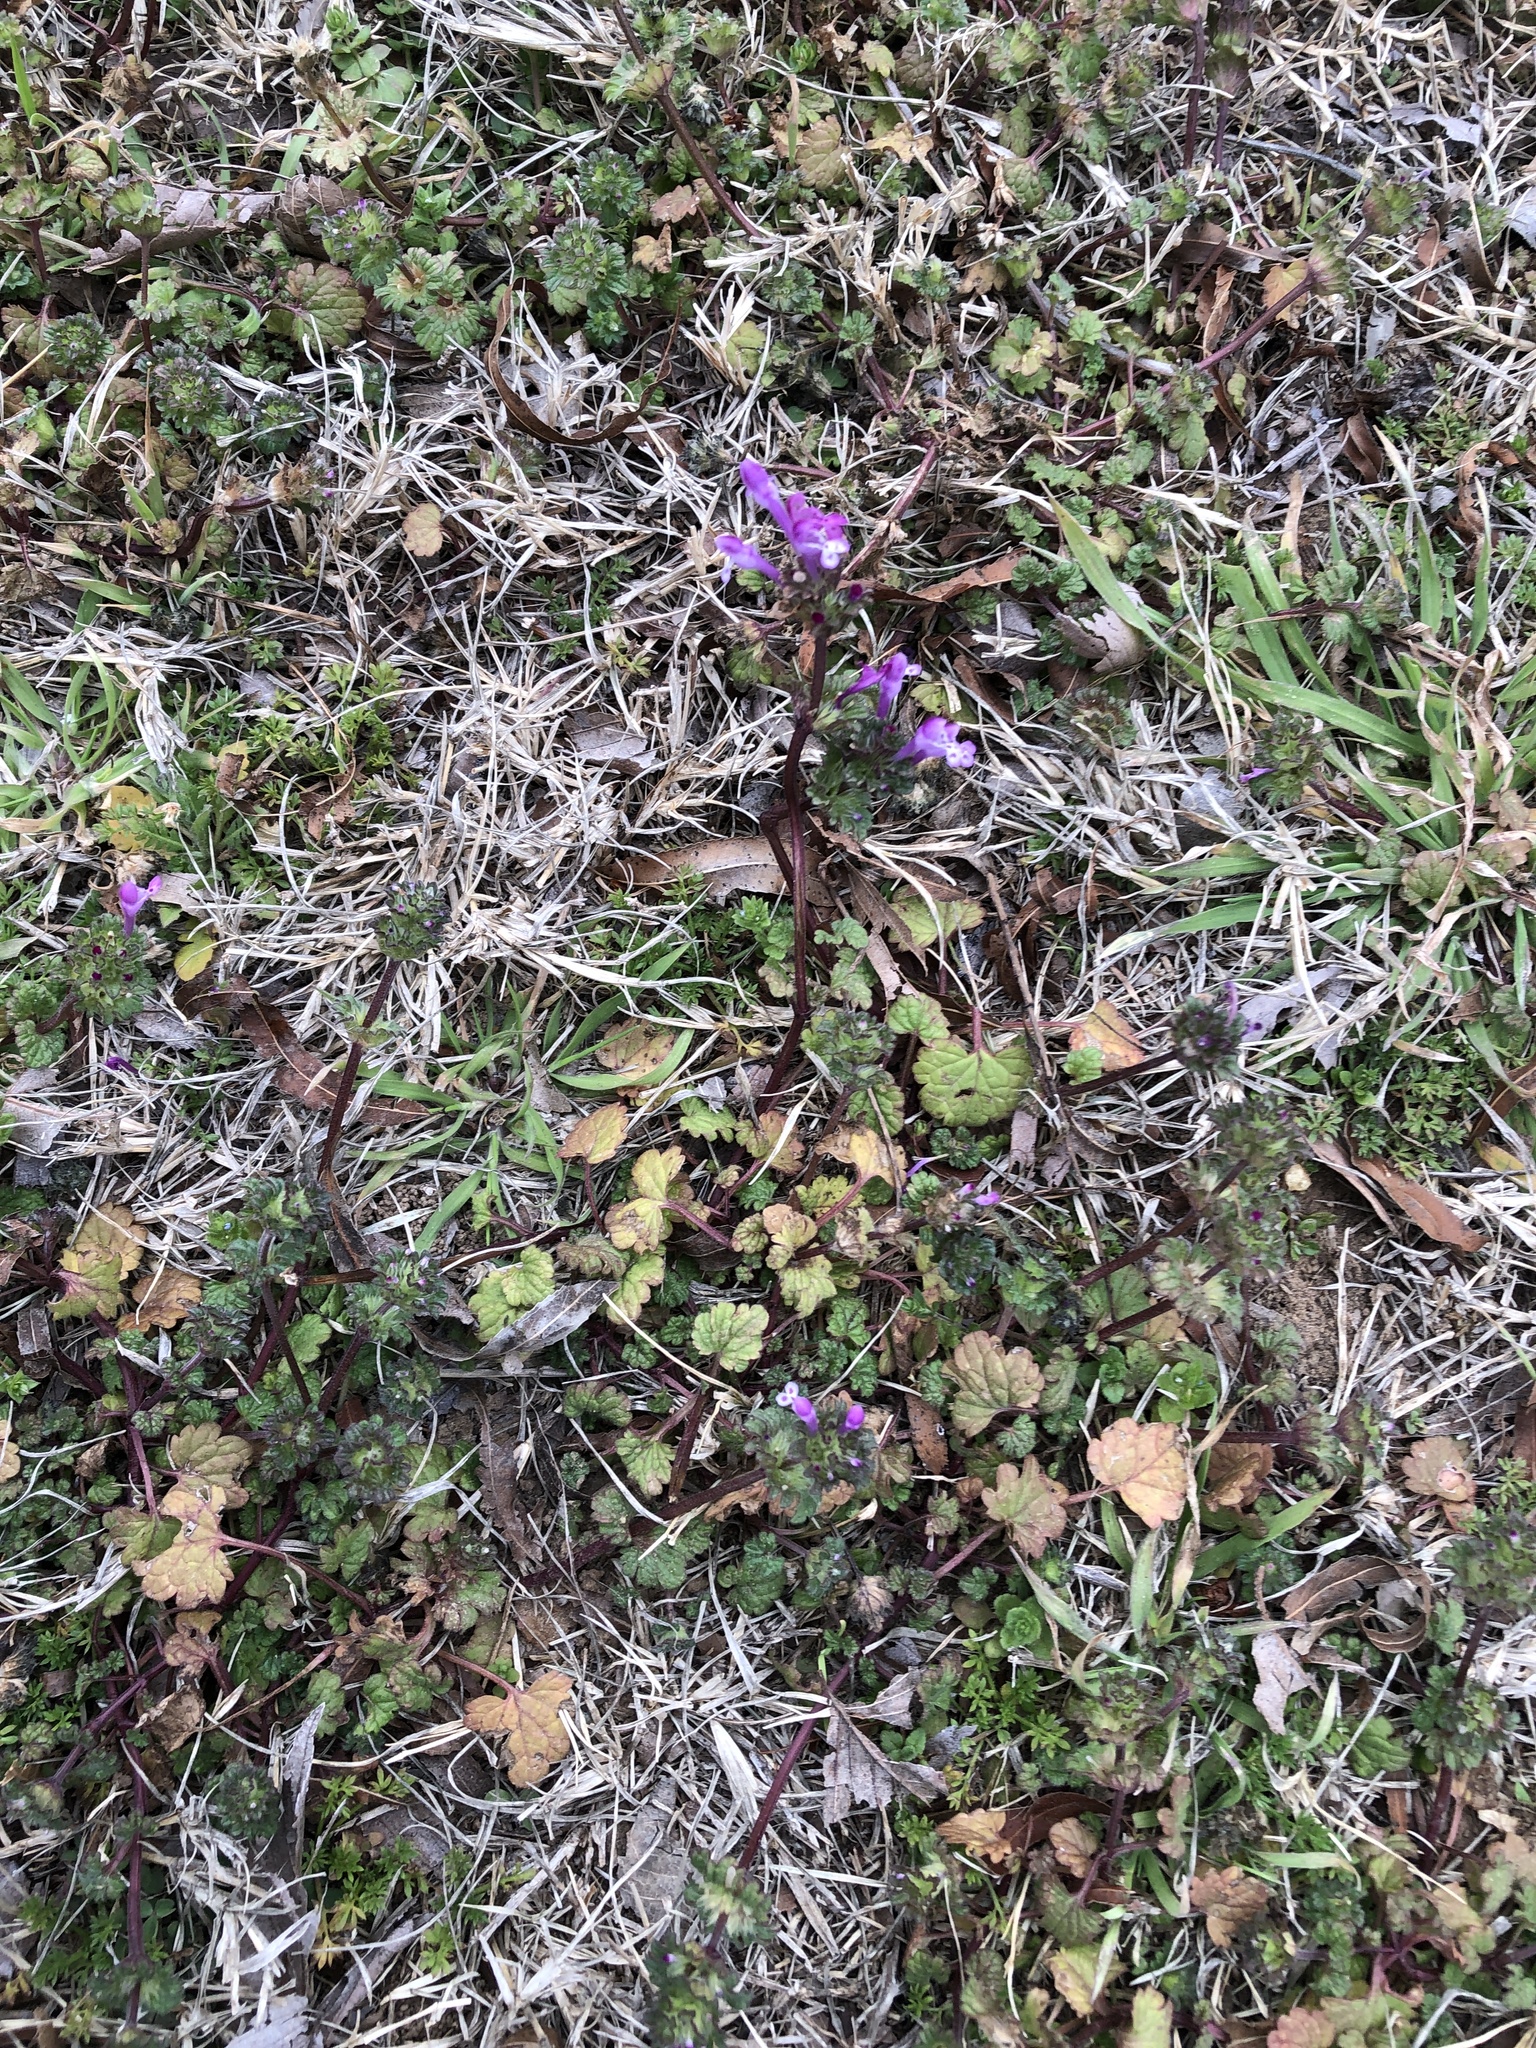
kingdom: Plantae
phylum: Tracheophyta
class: Magnoliopsida
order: Lamiales
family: Lamiaceae
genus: Lamium
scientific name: Lamium amplexicaule
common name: Henbit dead-nettle
